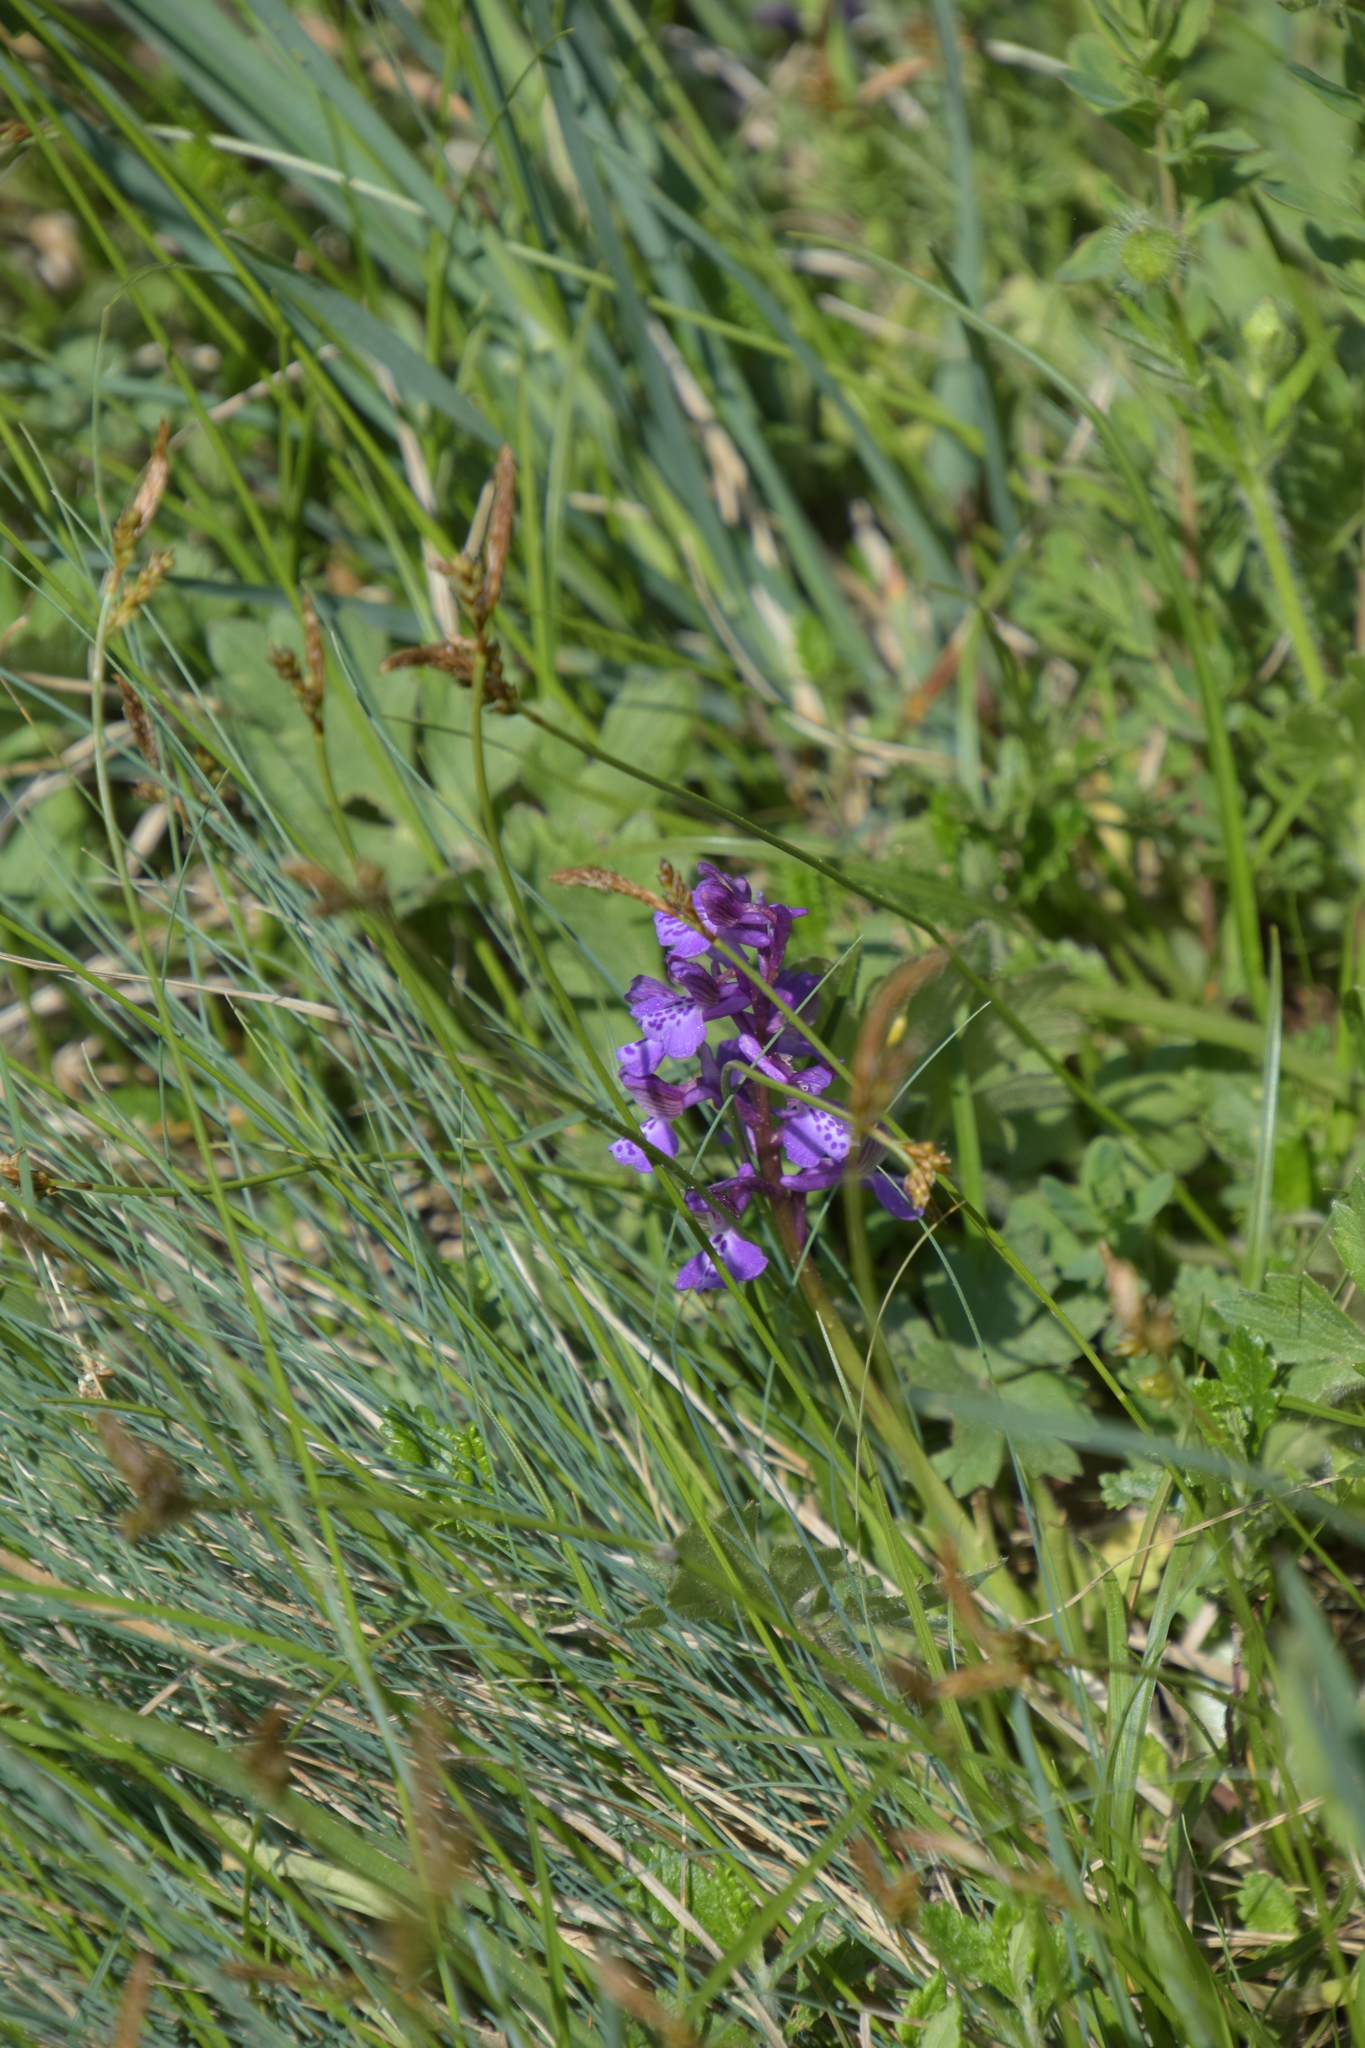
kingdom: Plantae
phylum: Tracheophyta
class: Liliopsida
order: Asparagales
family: Orchidaceae
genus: Anacamptis
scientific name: Anacamptis morio
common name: Green-winged orchid
